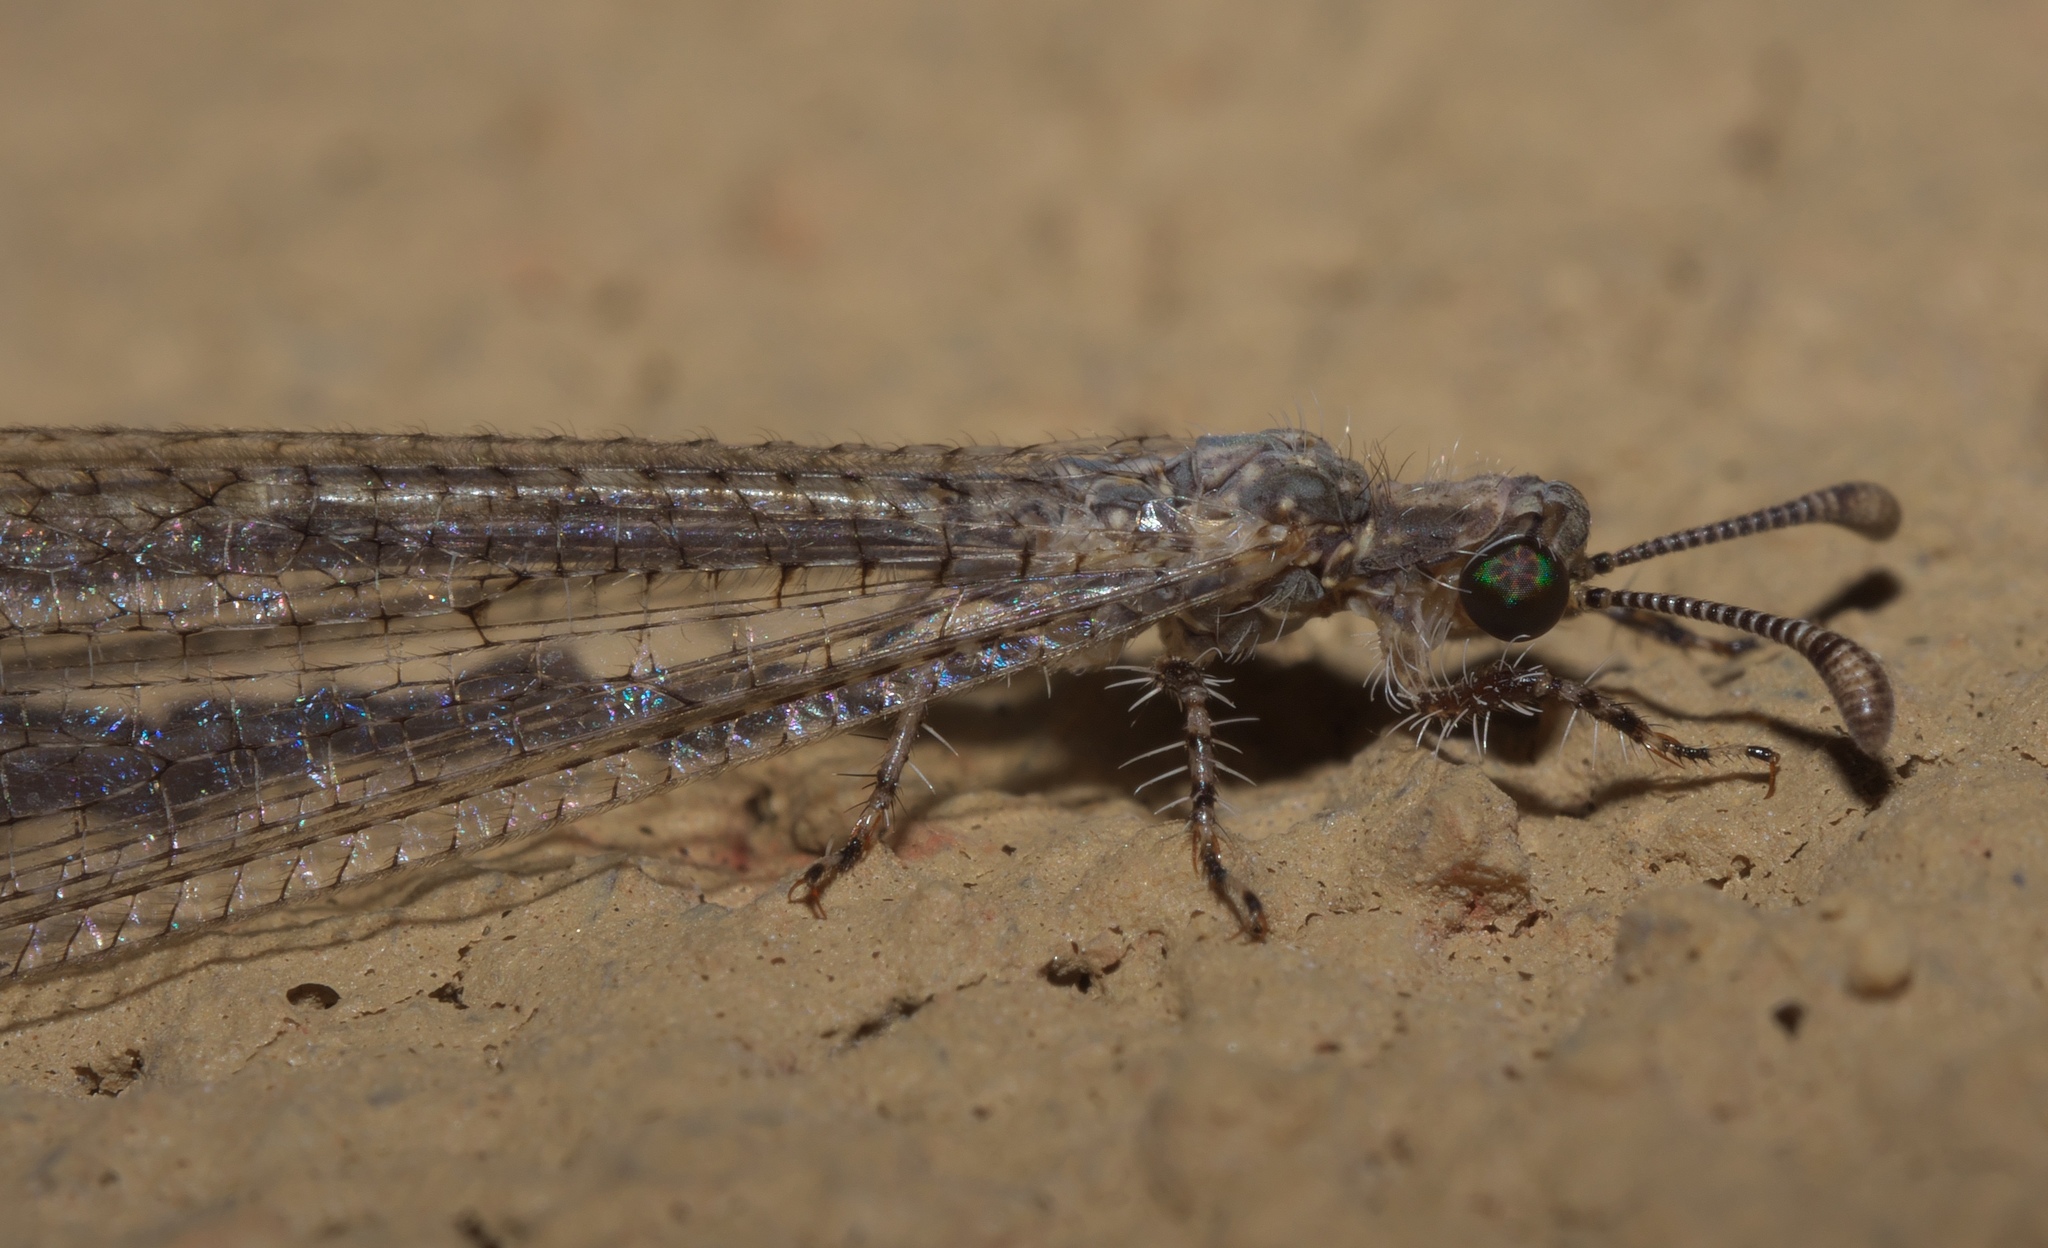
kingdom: Animalia
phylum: Arthropoda
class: Insecta
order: Neuroptera
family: Myrmeleontidae
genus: Peruveleon
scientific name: Peruveleon dorsalis
